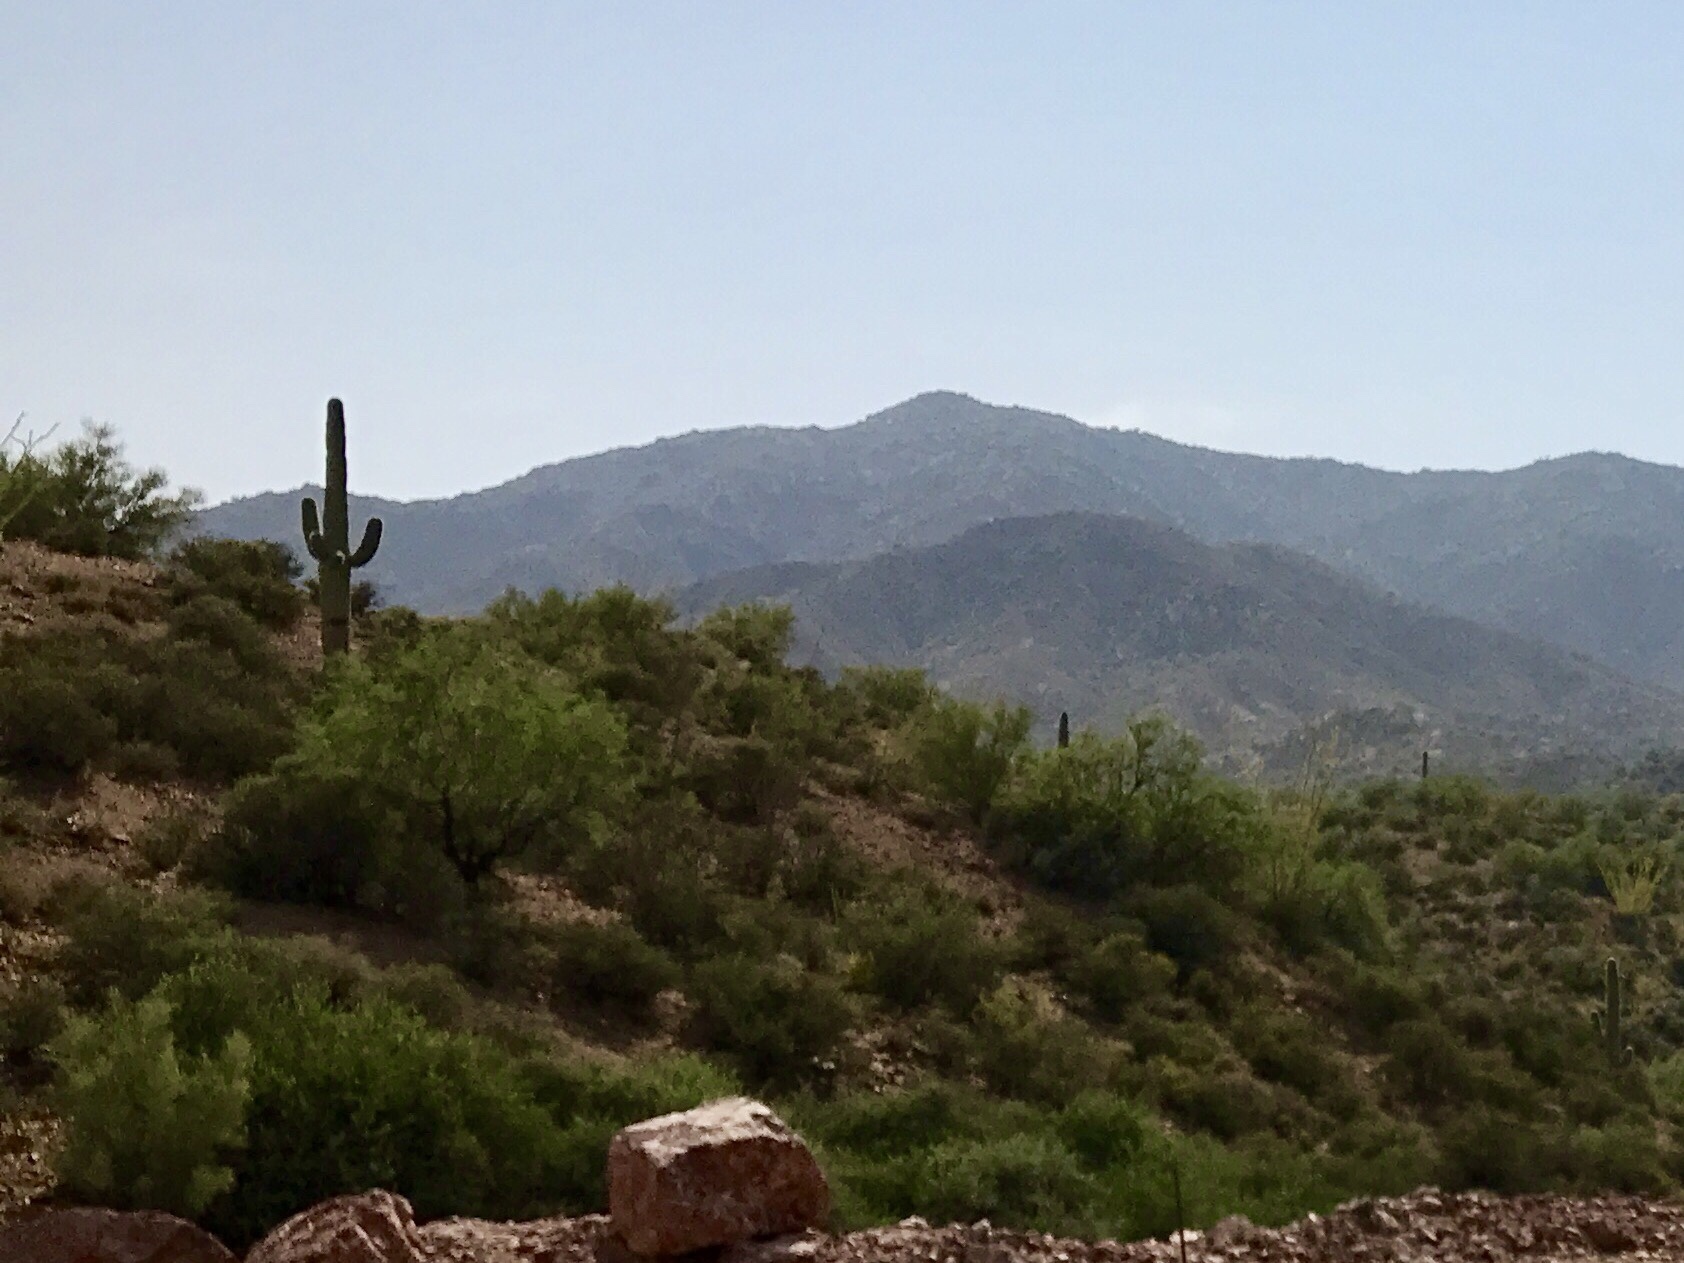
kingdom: Plantae
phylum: Tracheophyta
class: Magnoliopsida
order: Caryophyllales
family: Cactaceae
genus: Carnegiea
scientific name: Carnegiea gigantea
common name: Saguaro
